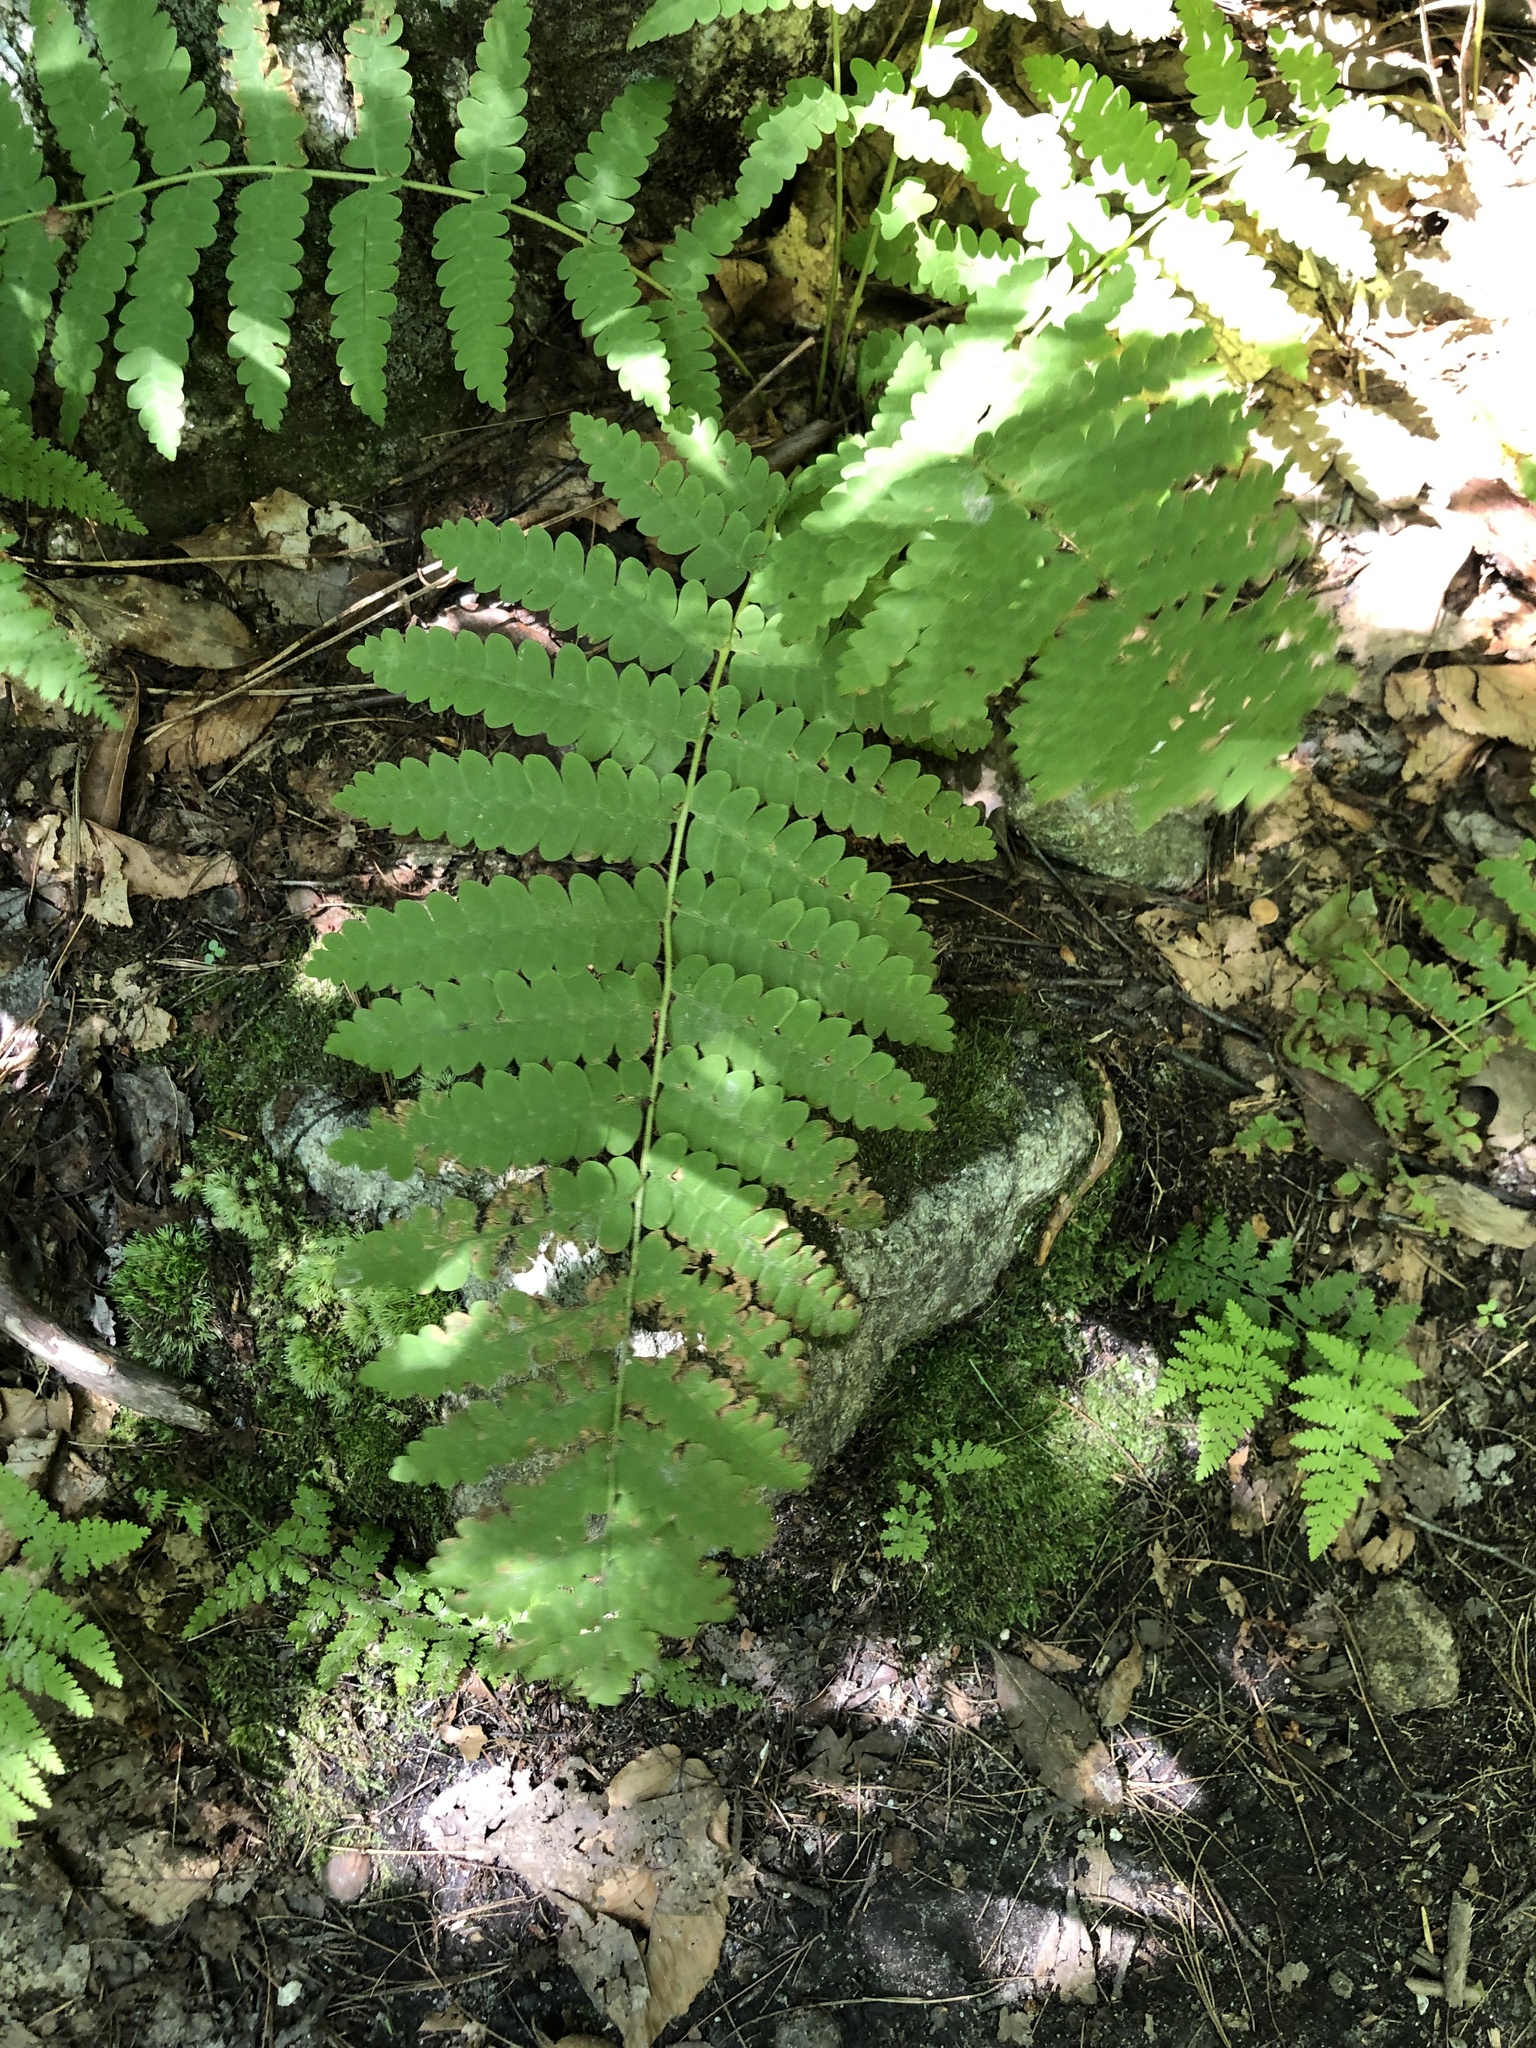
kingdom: Plantae
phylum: Tracheophyta
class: Polypodiopsida
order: Osmundales
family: Osmundaceae
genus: Claytosmunda
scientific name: Claytosmunda claytoniana
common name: Clayton's fern
